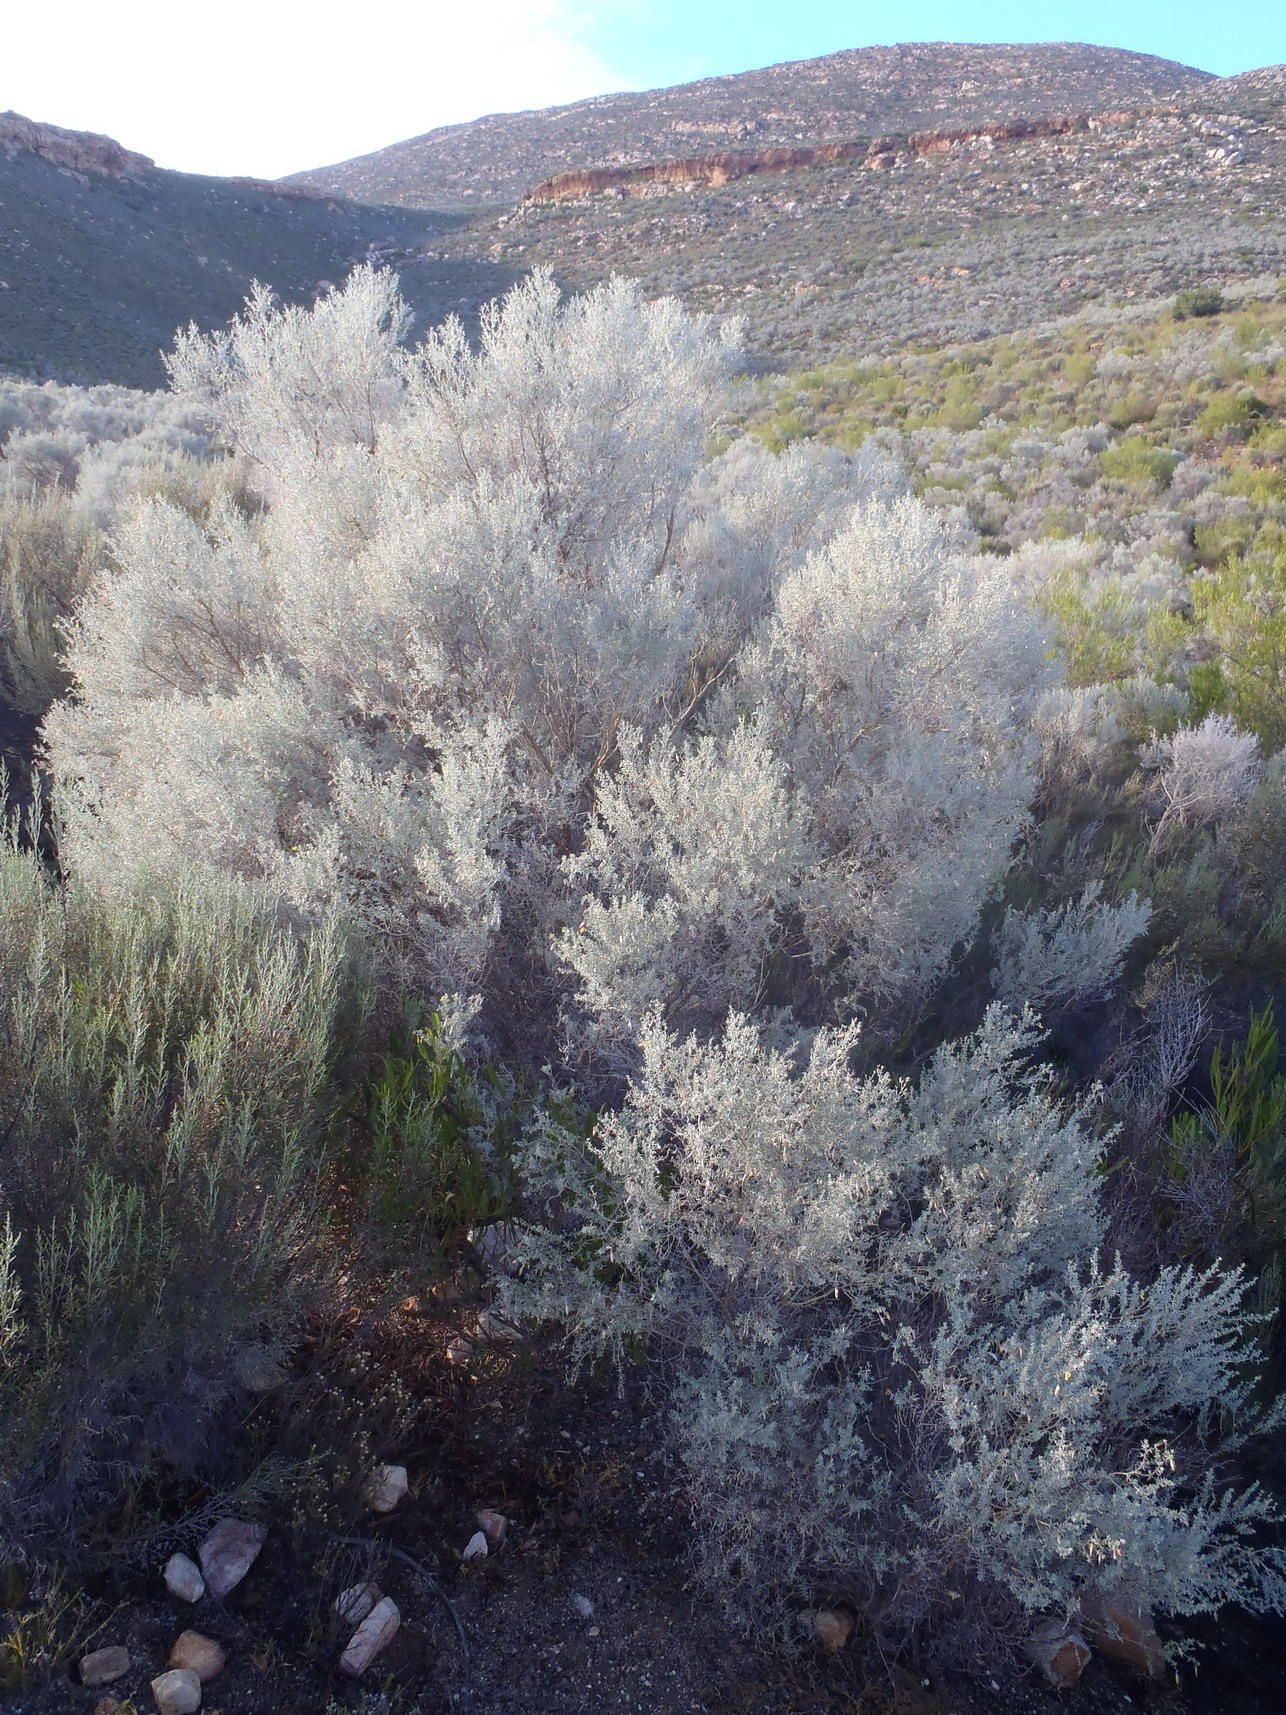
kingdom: Plantae
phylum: Tracheophyta
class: Magnoliopsida
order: Fabales
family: Fabaceae
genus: Aspalathus
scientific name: Aspalathus pedunculata
